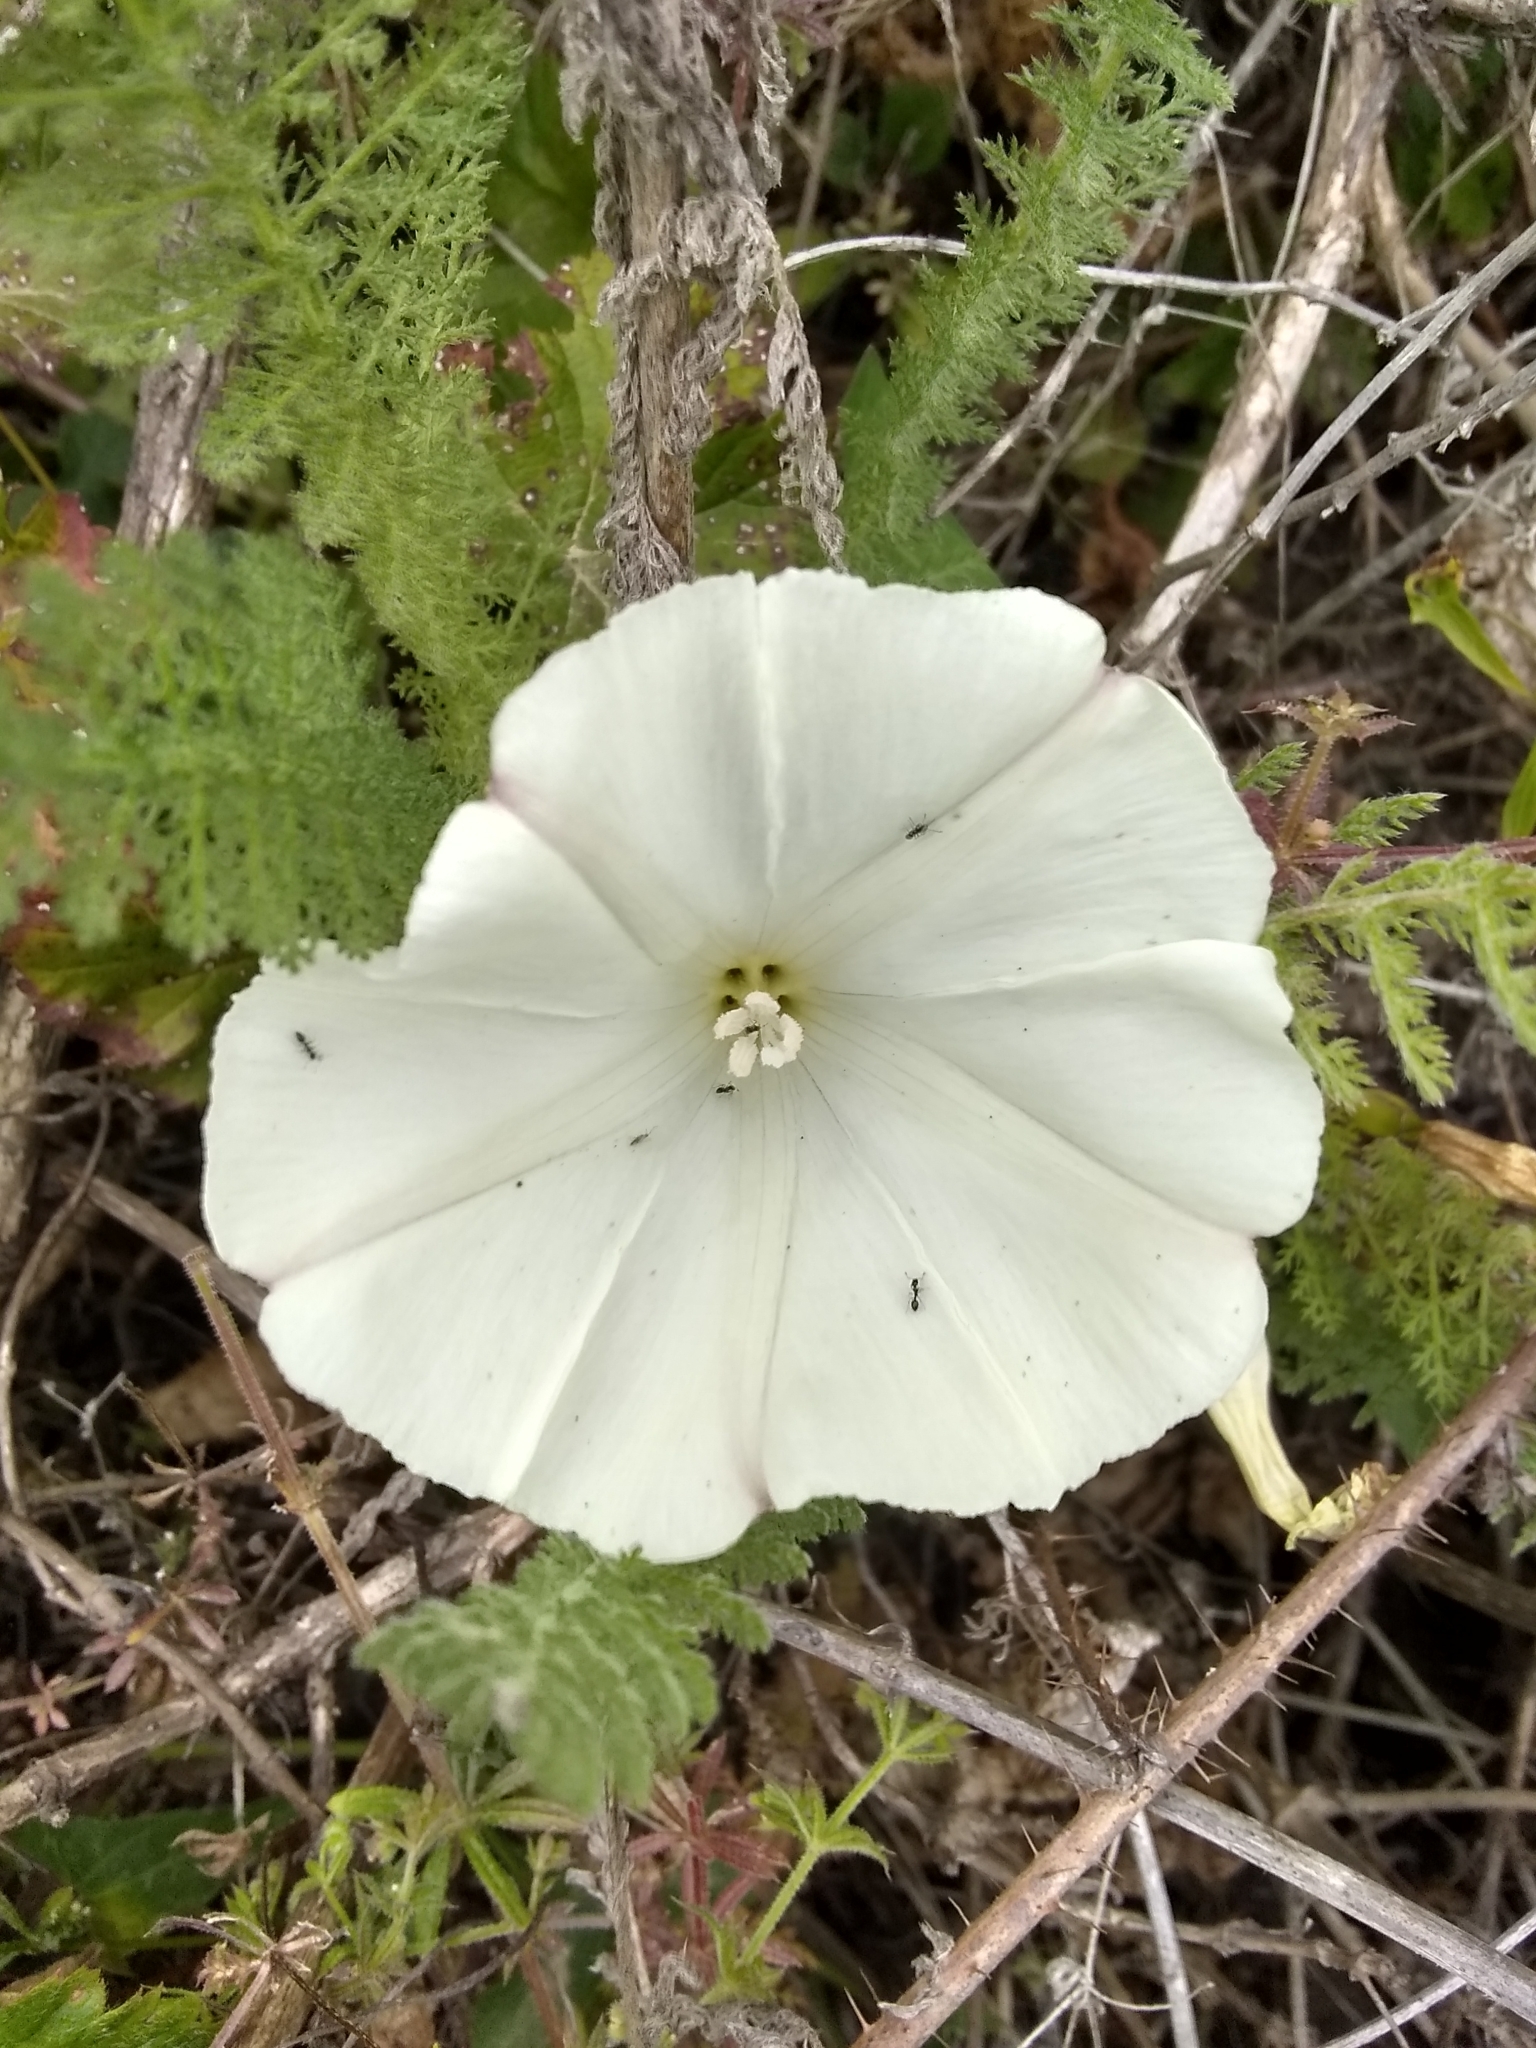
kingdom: Plantae
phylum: Tracheophyta
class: Magnoliopsida
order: Solanales
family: Convolvulaceae
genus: Calystegia
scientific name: Calystegia purpurata
